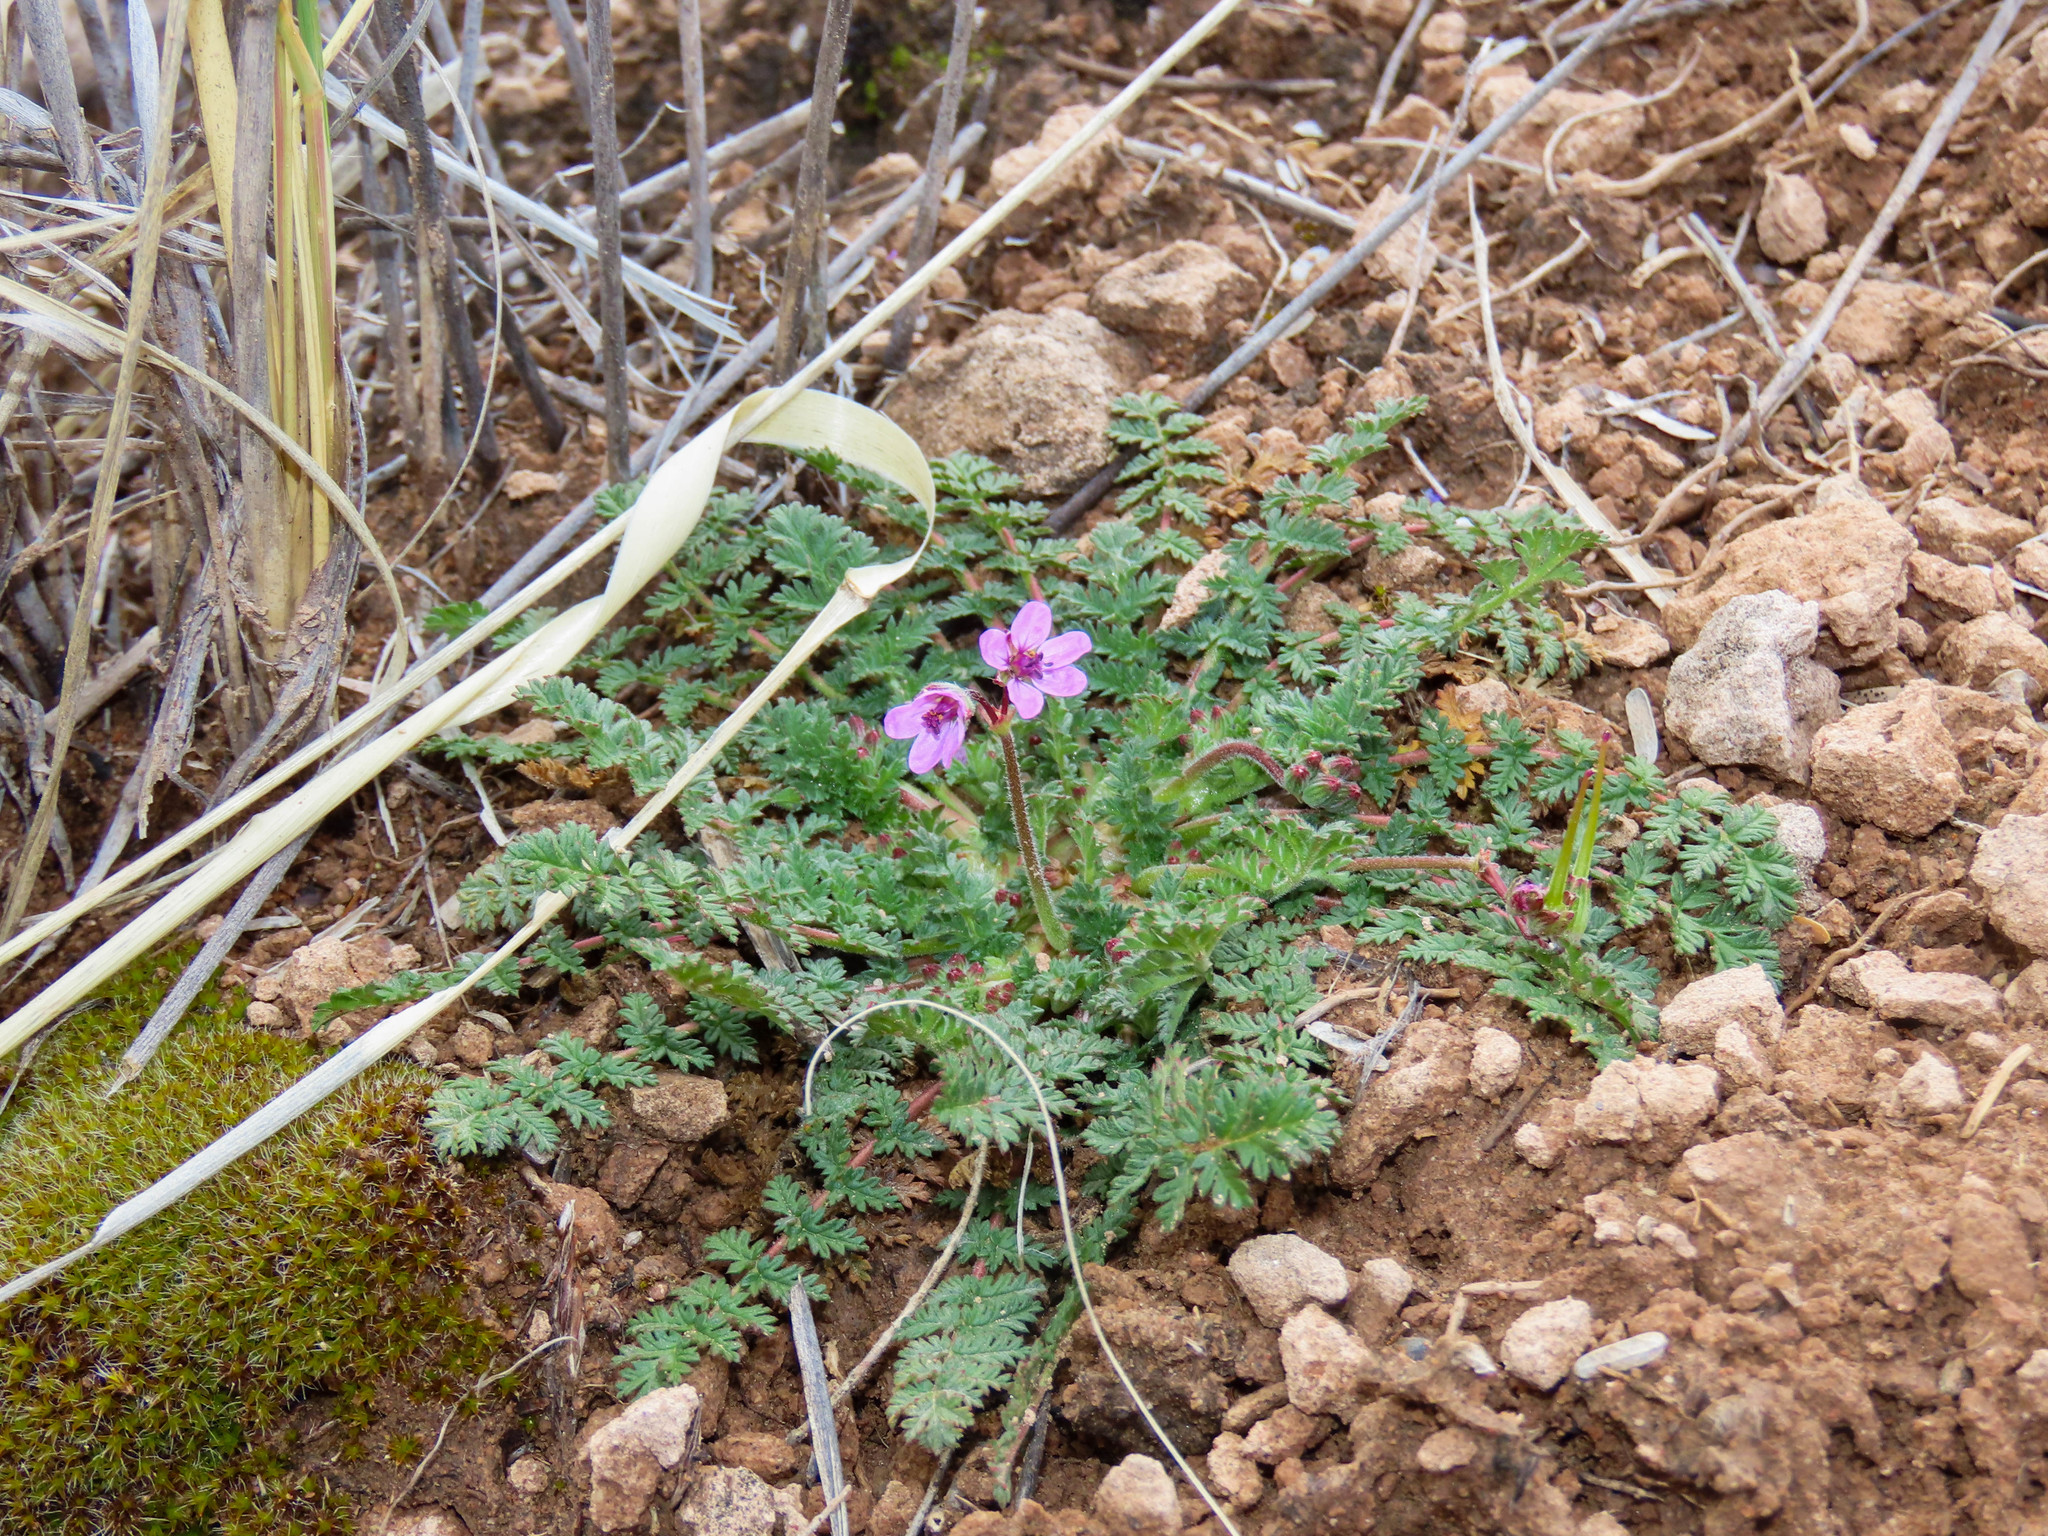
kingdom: Plantae
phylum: Tracheophyta
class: Magnoliopsida
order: Geraniales
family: Geraniaceae
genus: Erodium
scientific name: Erodium cicutarium
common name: Common stork's-bill
